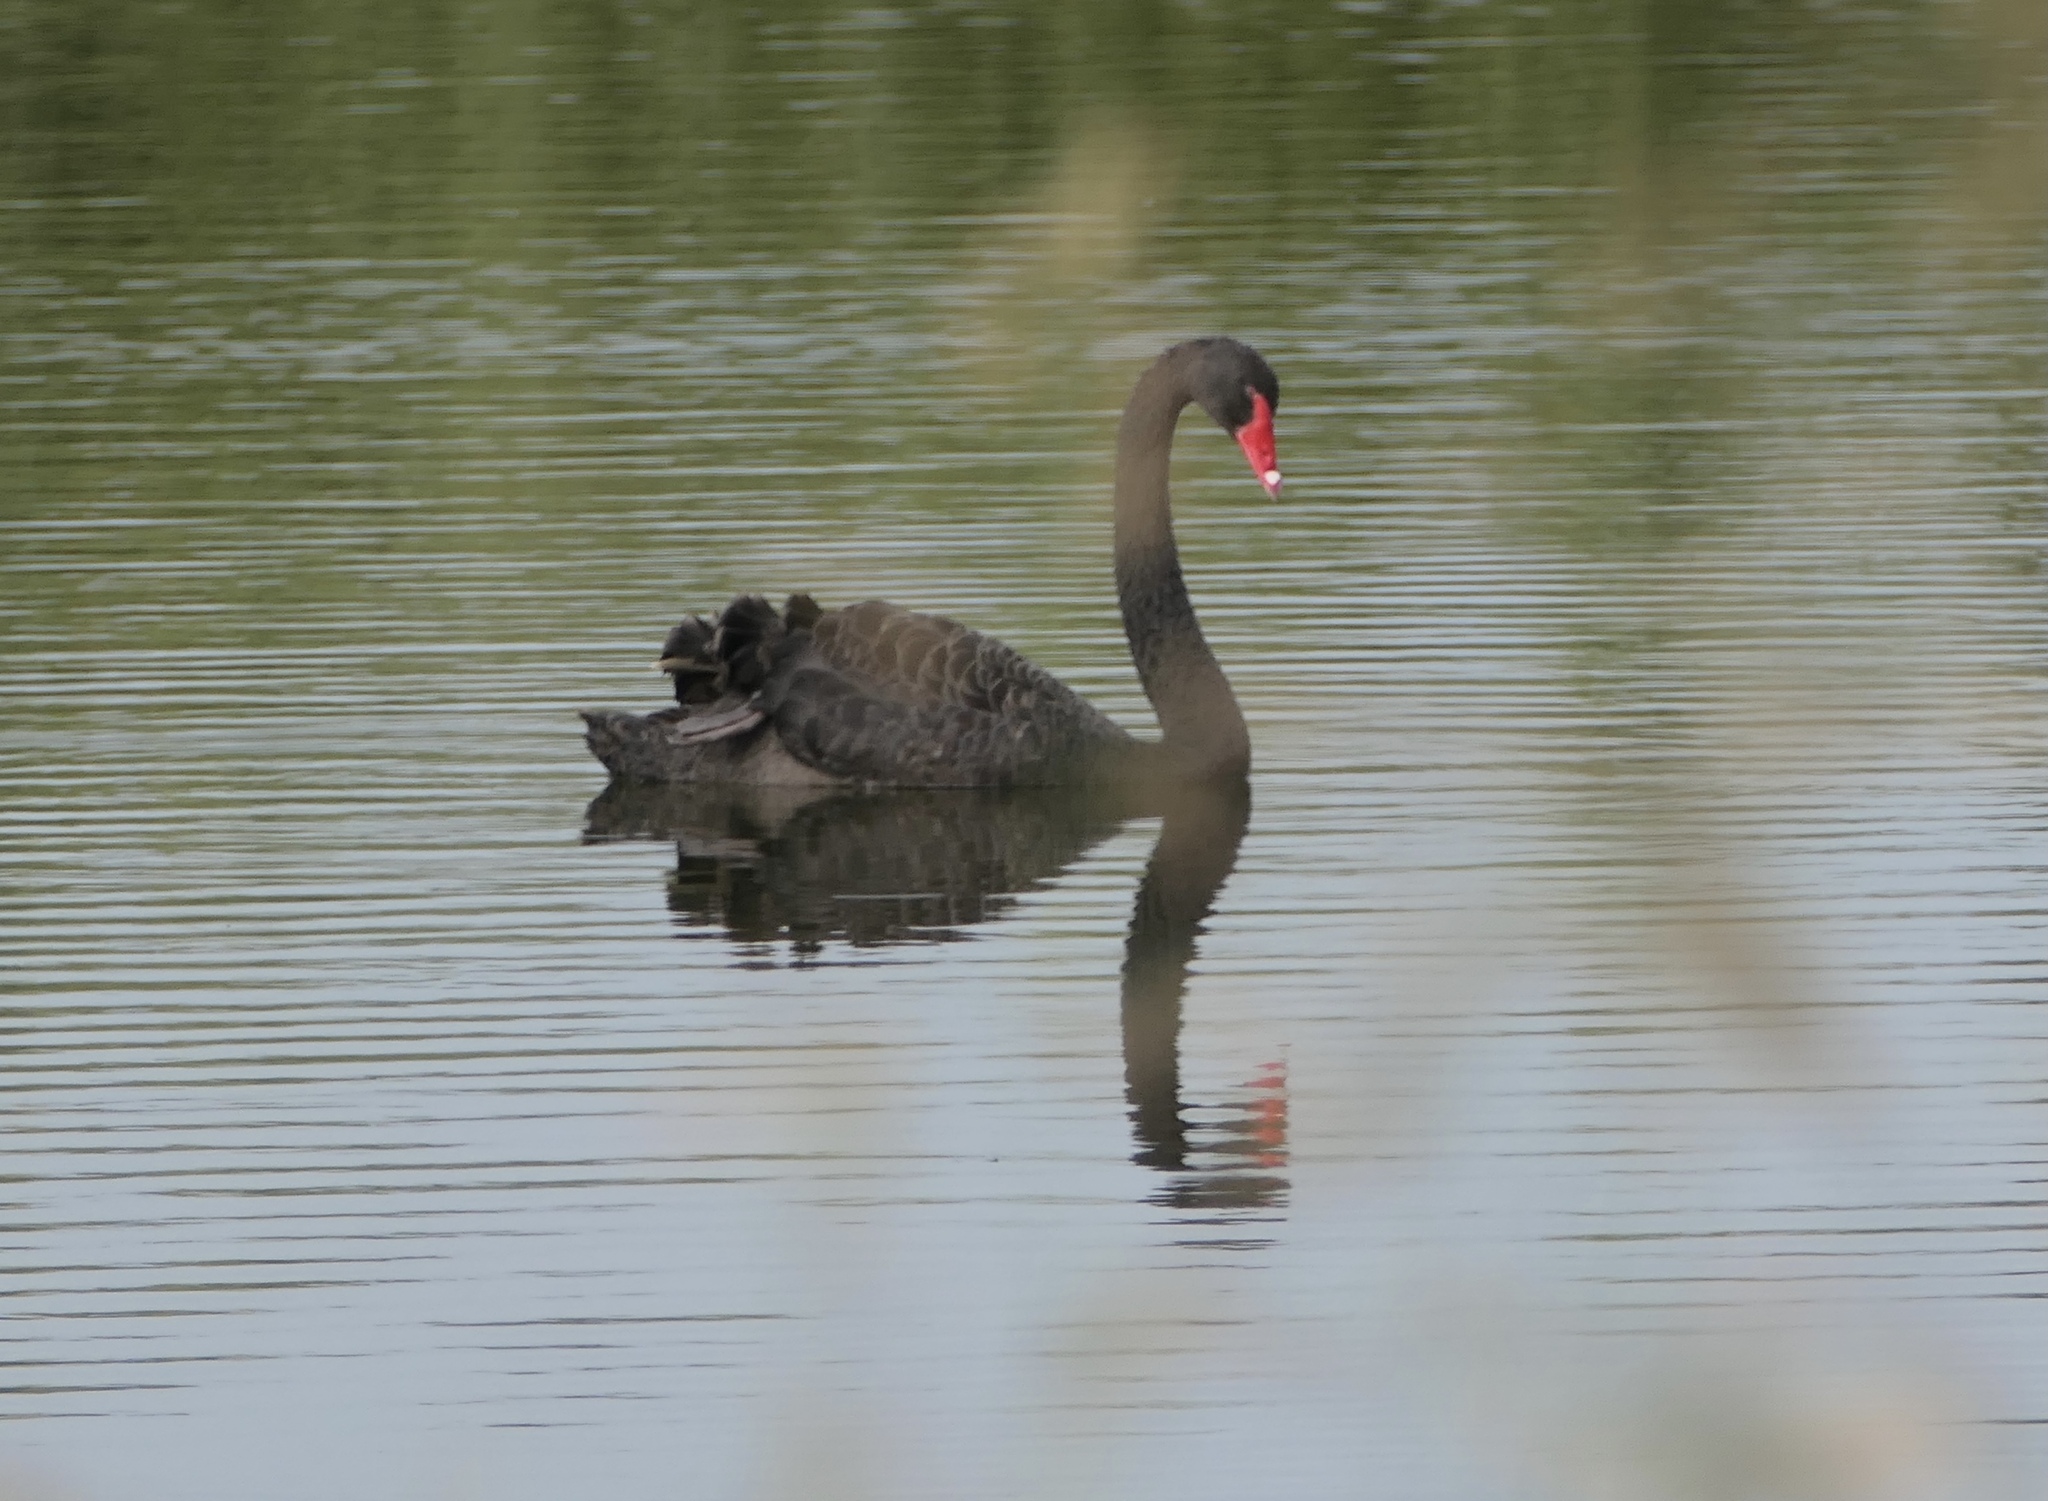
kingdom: Animalia
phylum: Chordata
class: Aves
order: Anseriformes
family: Anatidae
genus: Cygnus
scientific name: Cygnus atratus
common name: Black swan
